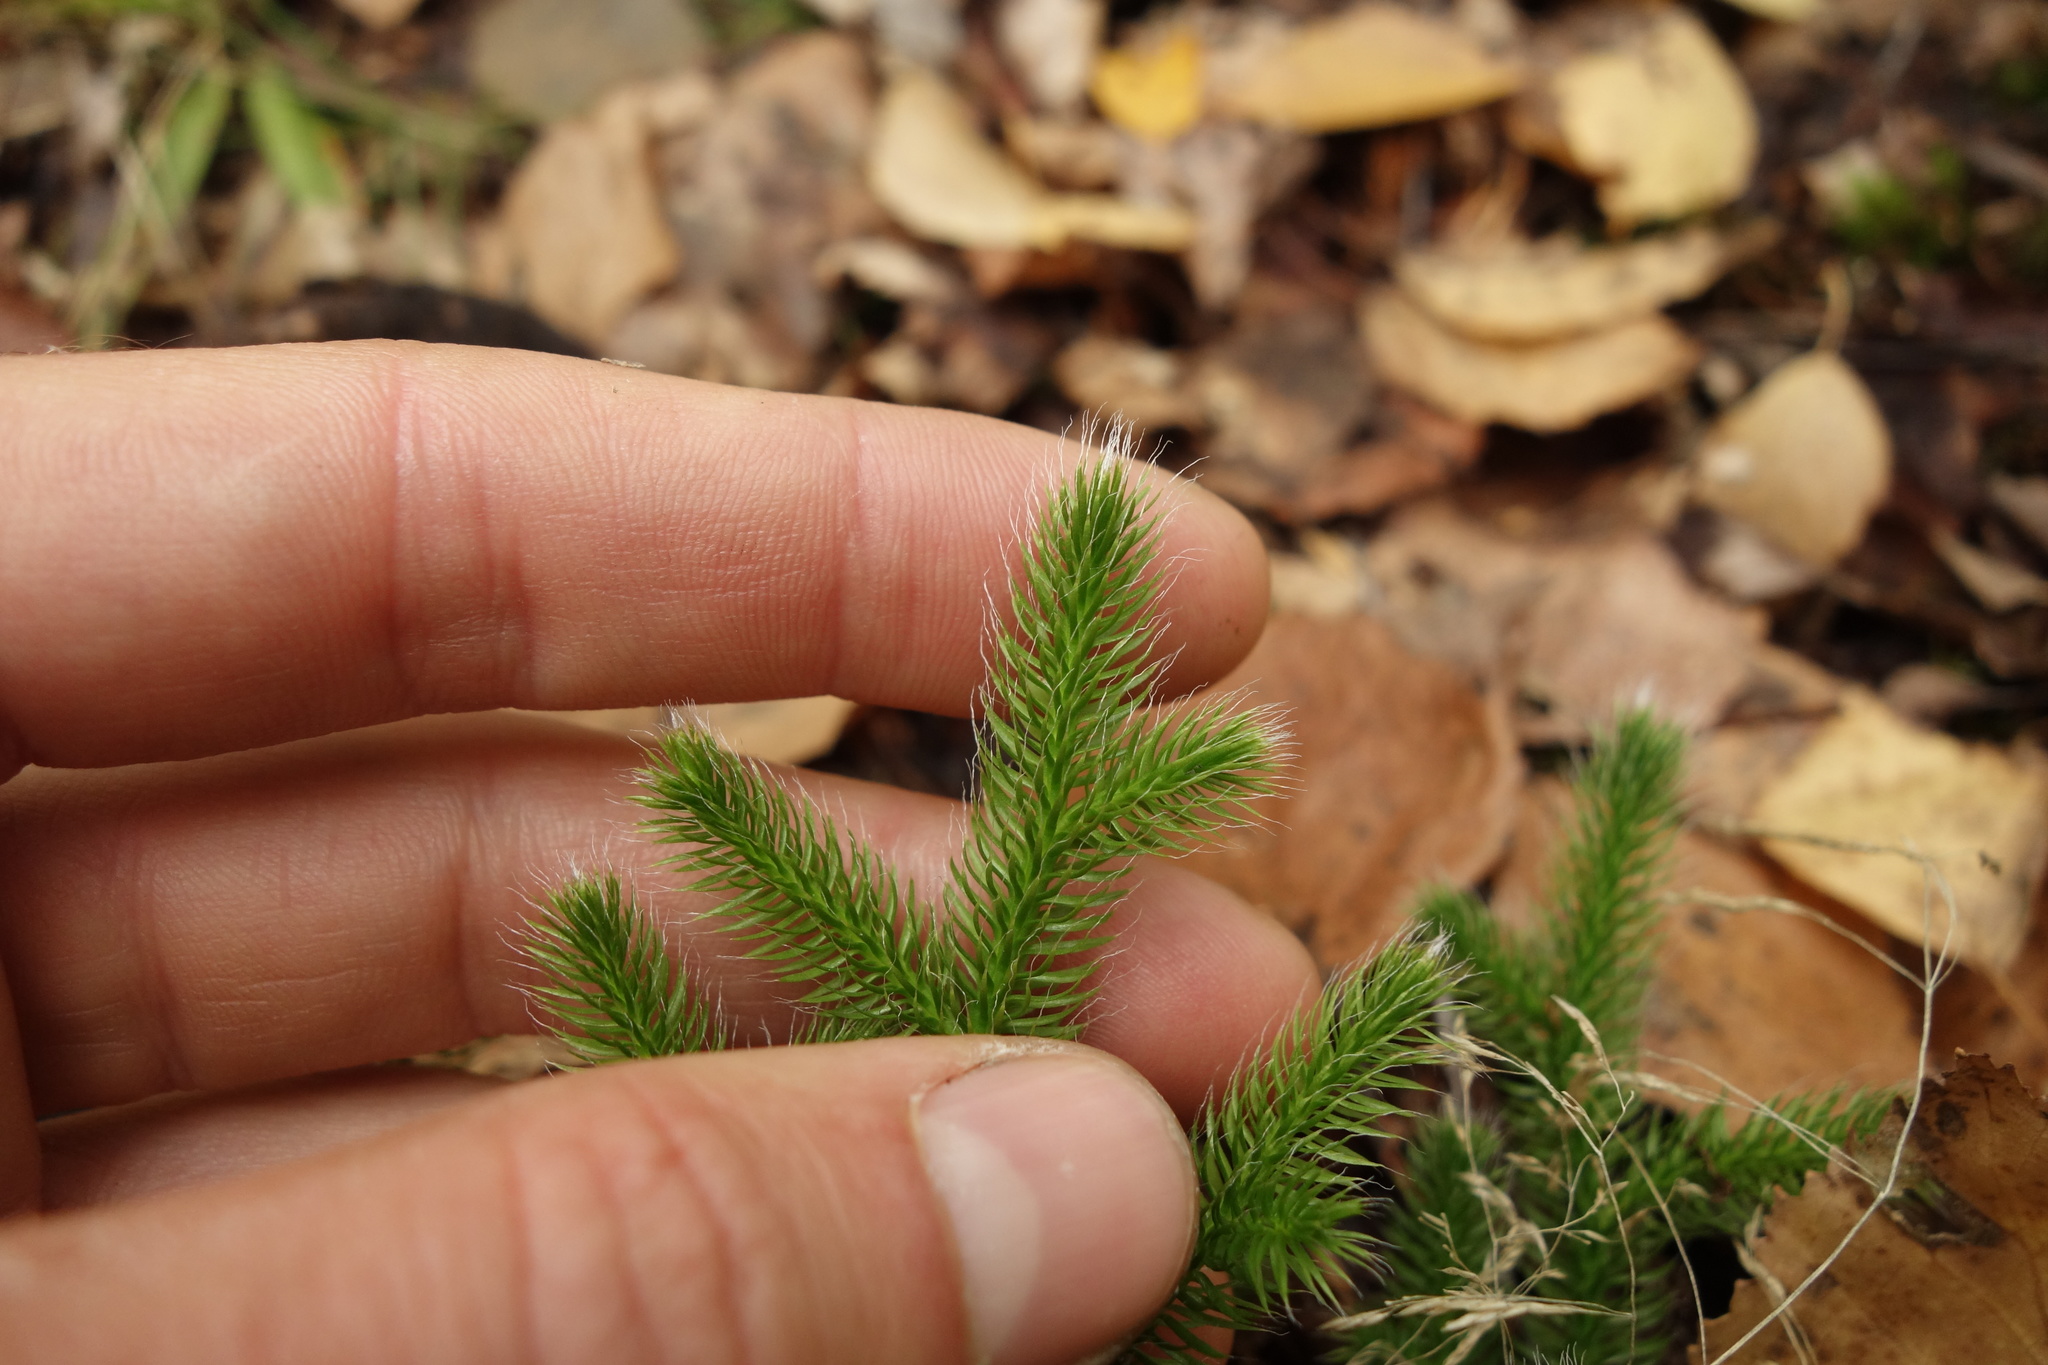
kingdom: Plantae
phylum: Tracheophyta
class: Lycopodiopsida
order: Lycopodiales
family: Lycopodiaceae
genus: Lycopodium
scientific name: Lycopodium clavatum
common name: Stag's-horn clubmoss
